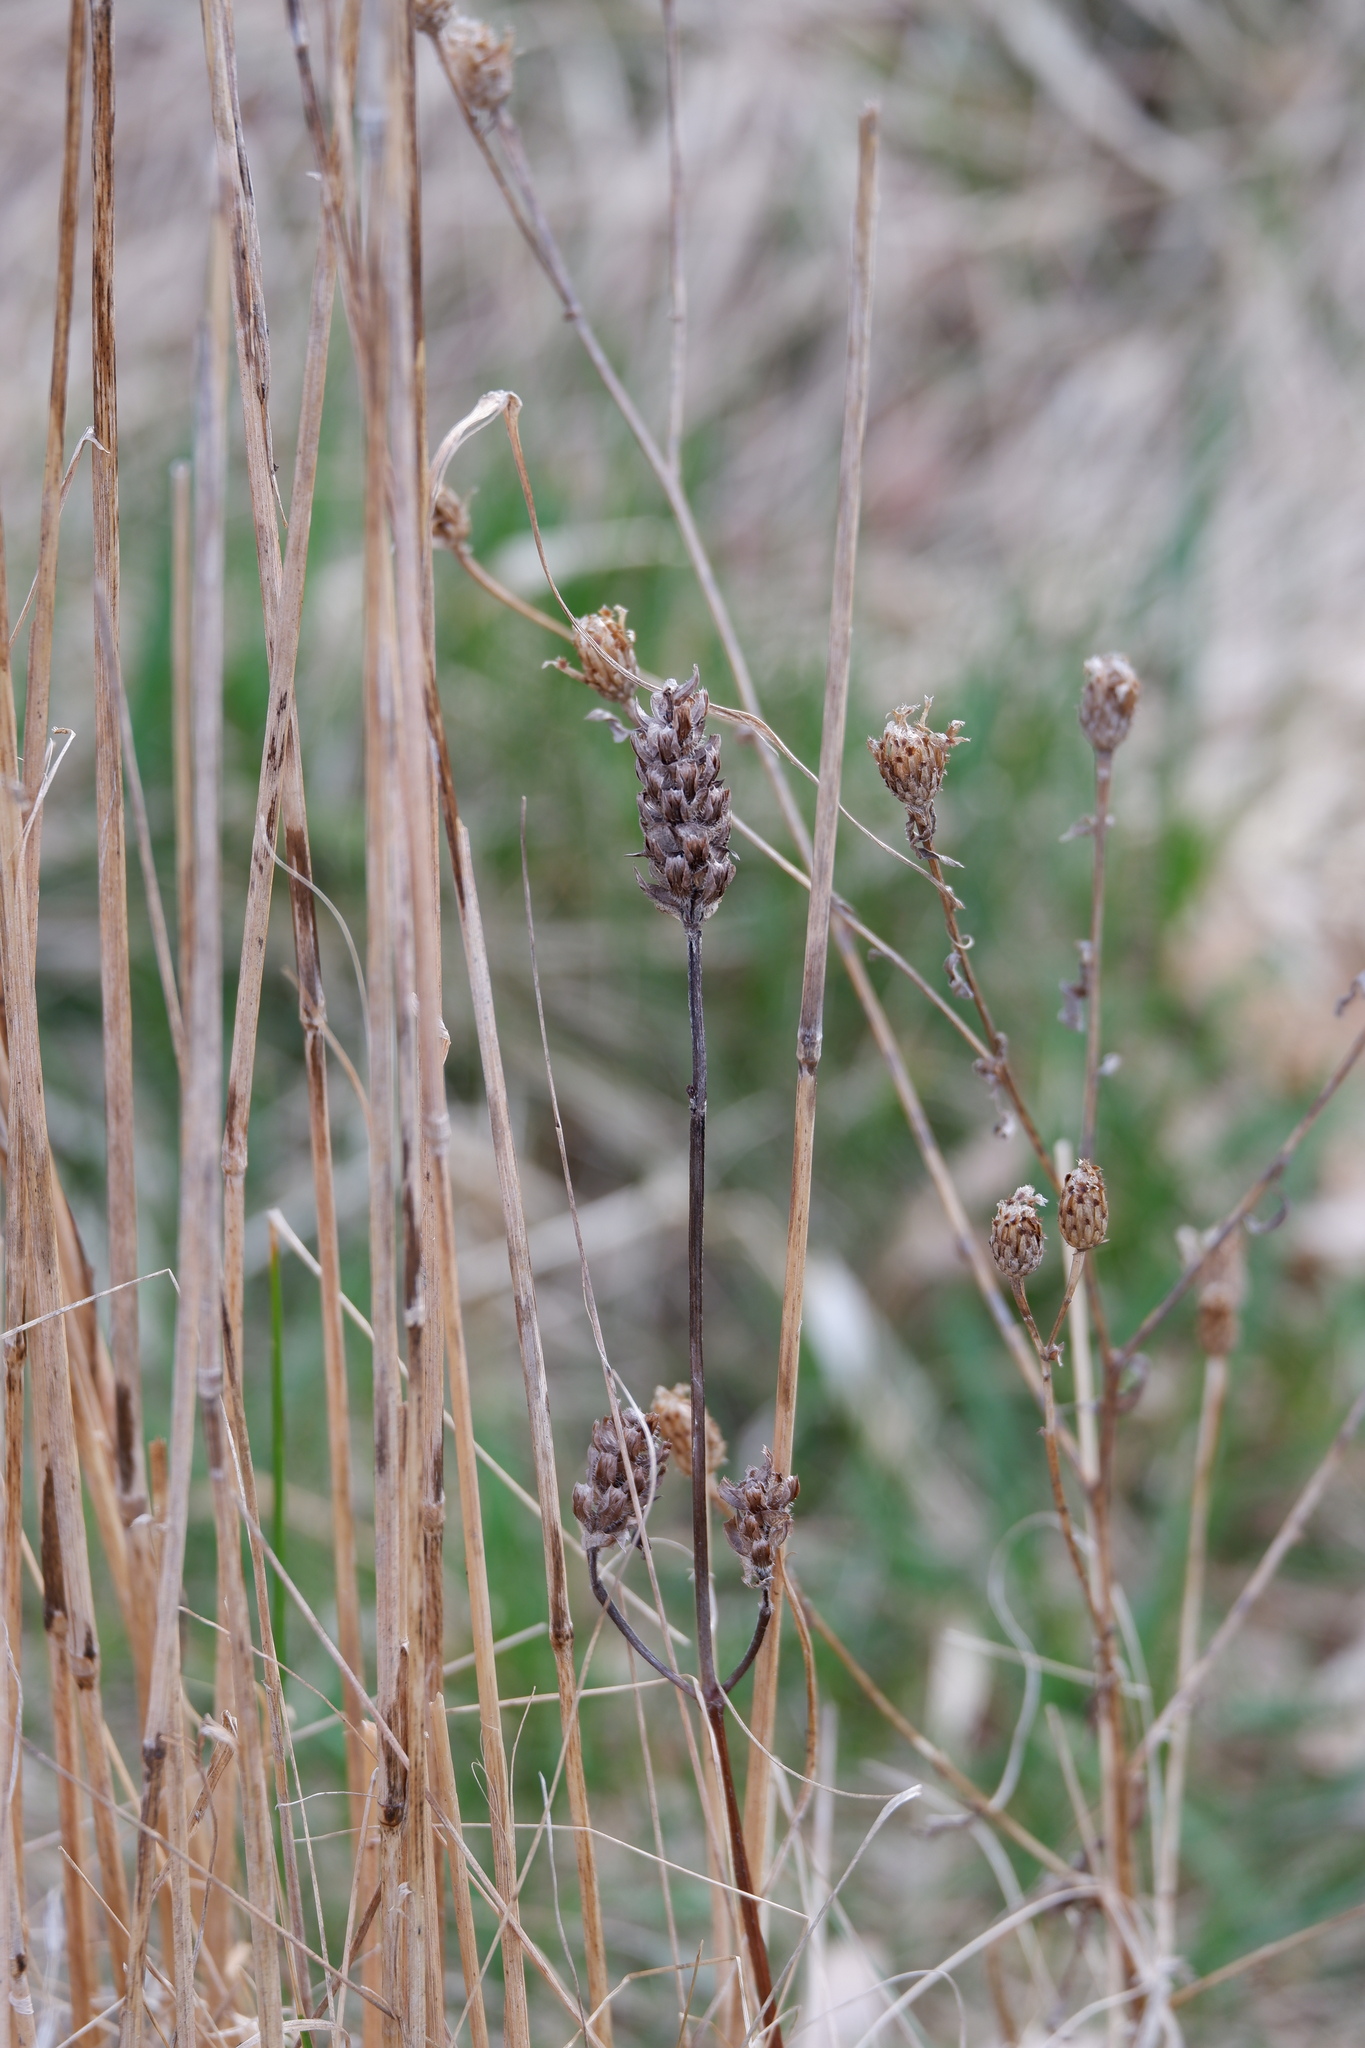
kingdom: Plantae
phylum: Tracheophyta
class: Magnoliopsida
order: Lamiales
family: Lamiaceae
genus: Prunella
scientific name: Prunella vulgaris
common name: Heal-all
